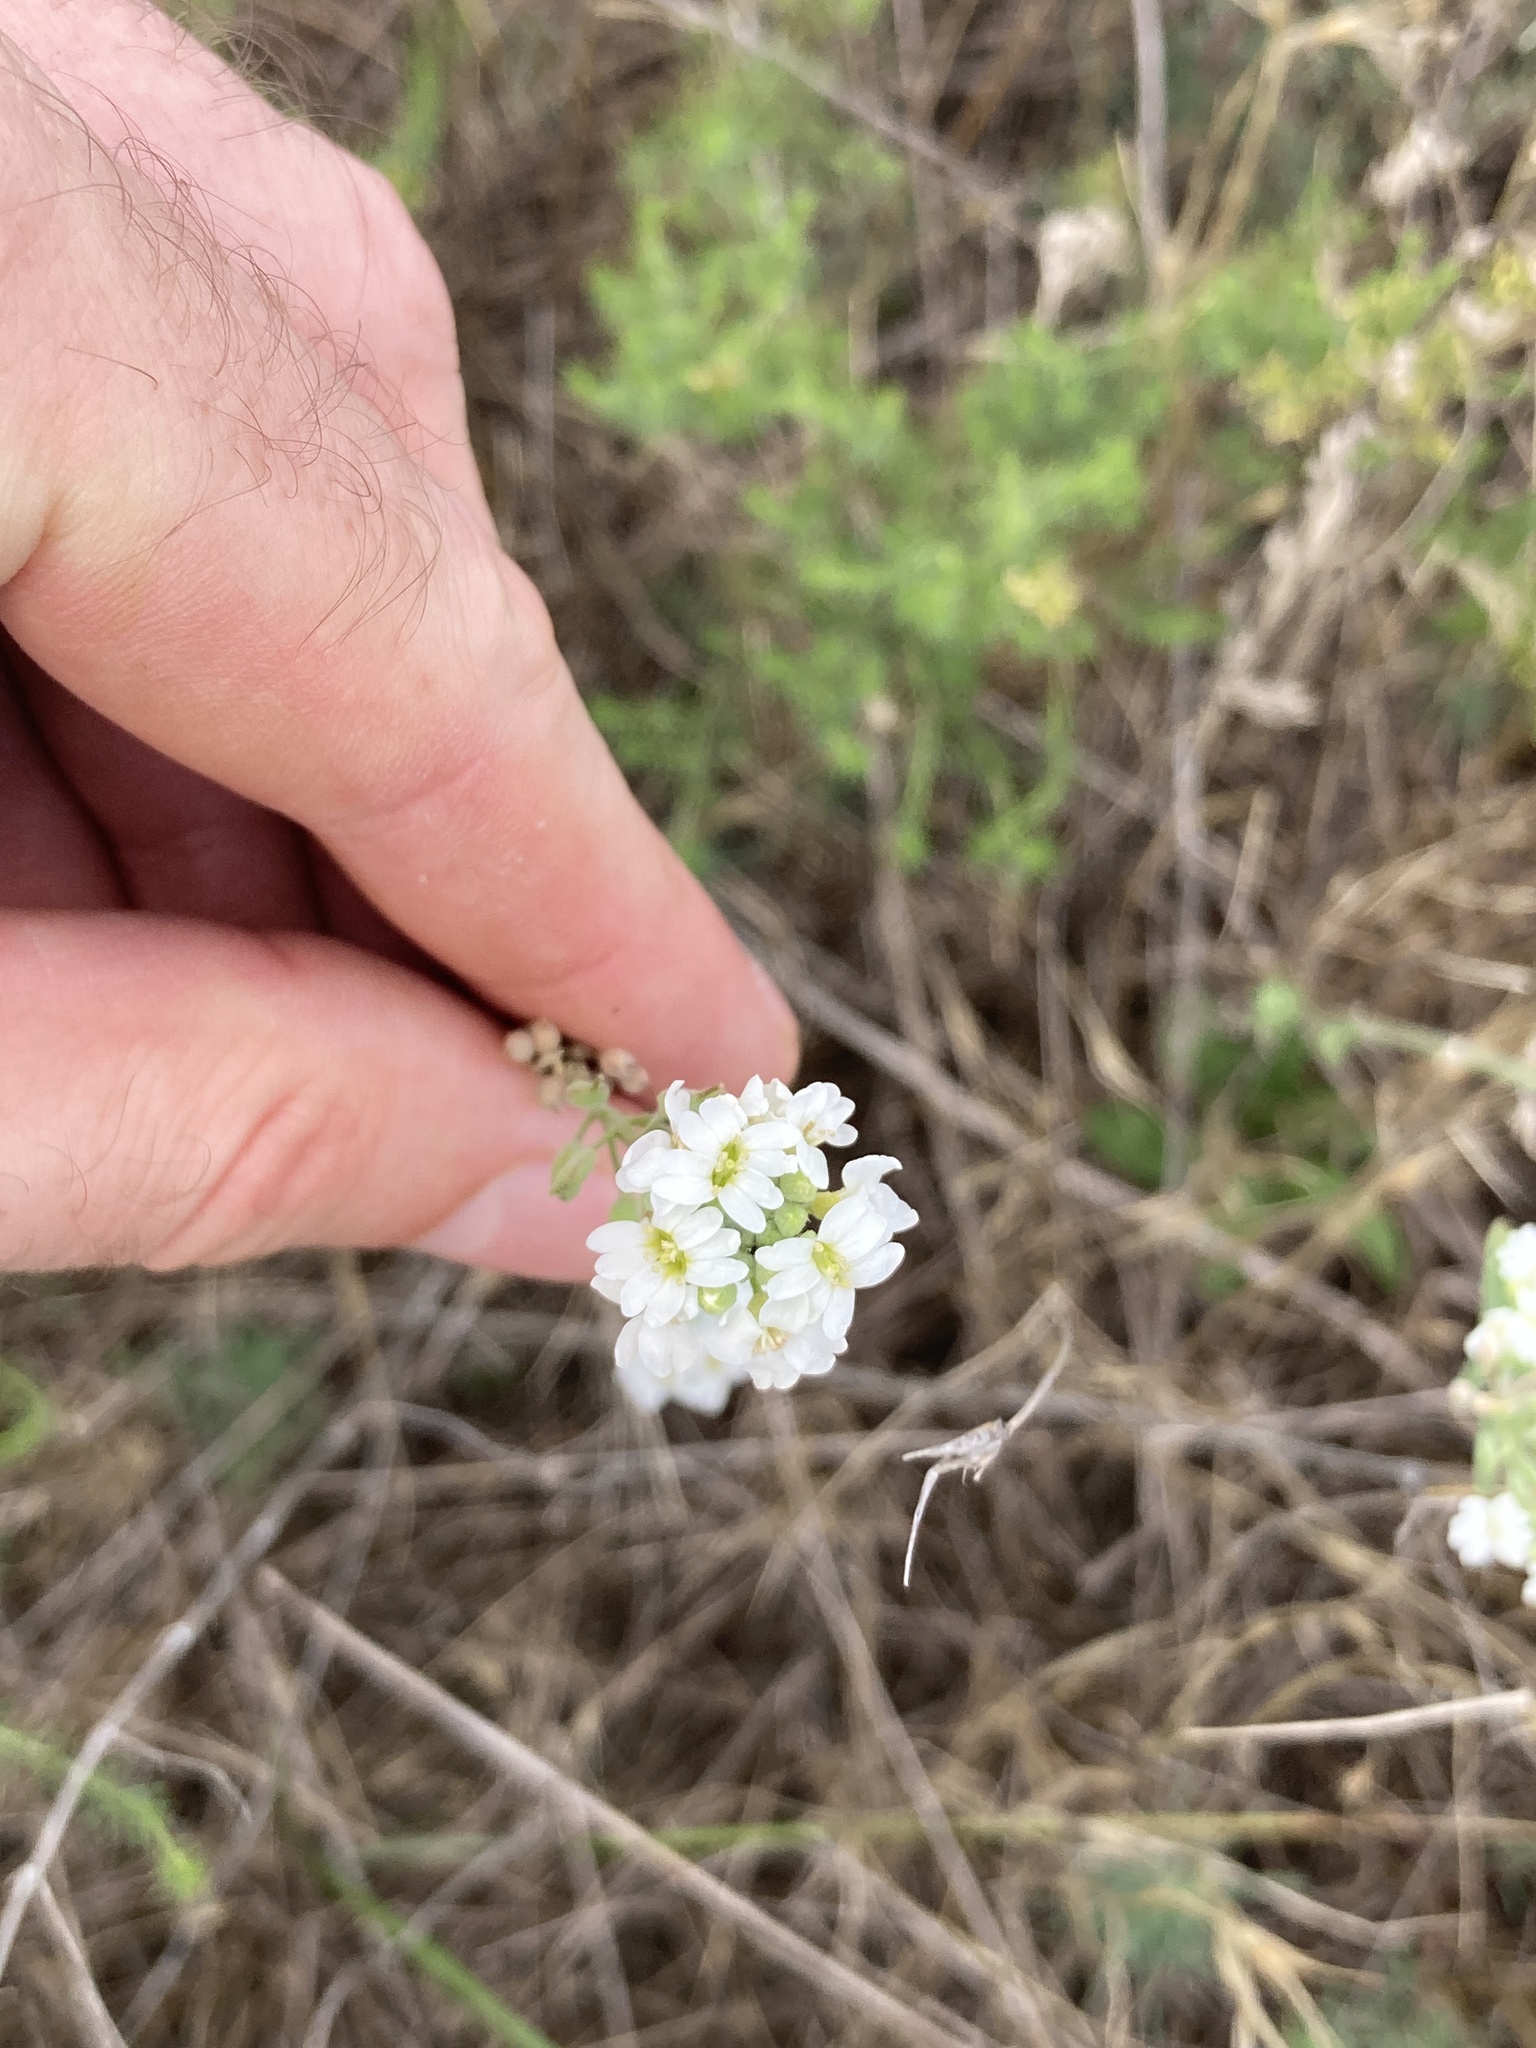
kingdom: Plantae
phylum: Tracheophyta
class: Magnoliopsida
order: Brassicales
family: Brassicaceae
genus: Berteroa
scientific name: Berteroa incana
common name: Hoary alison
